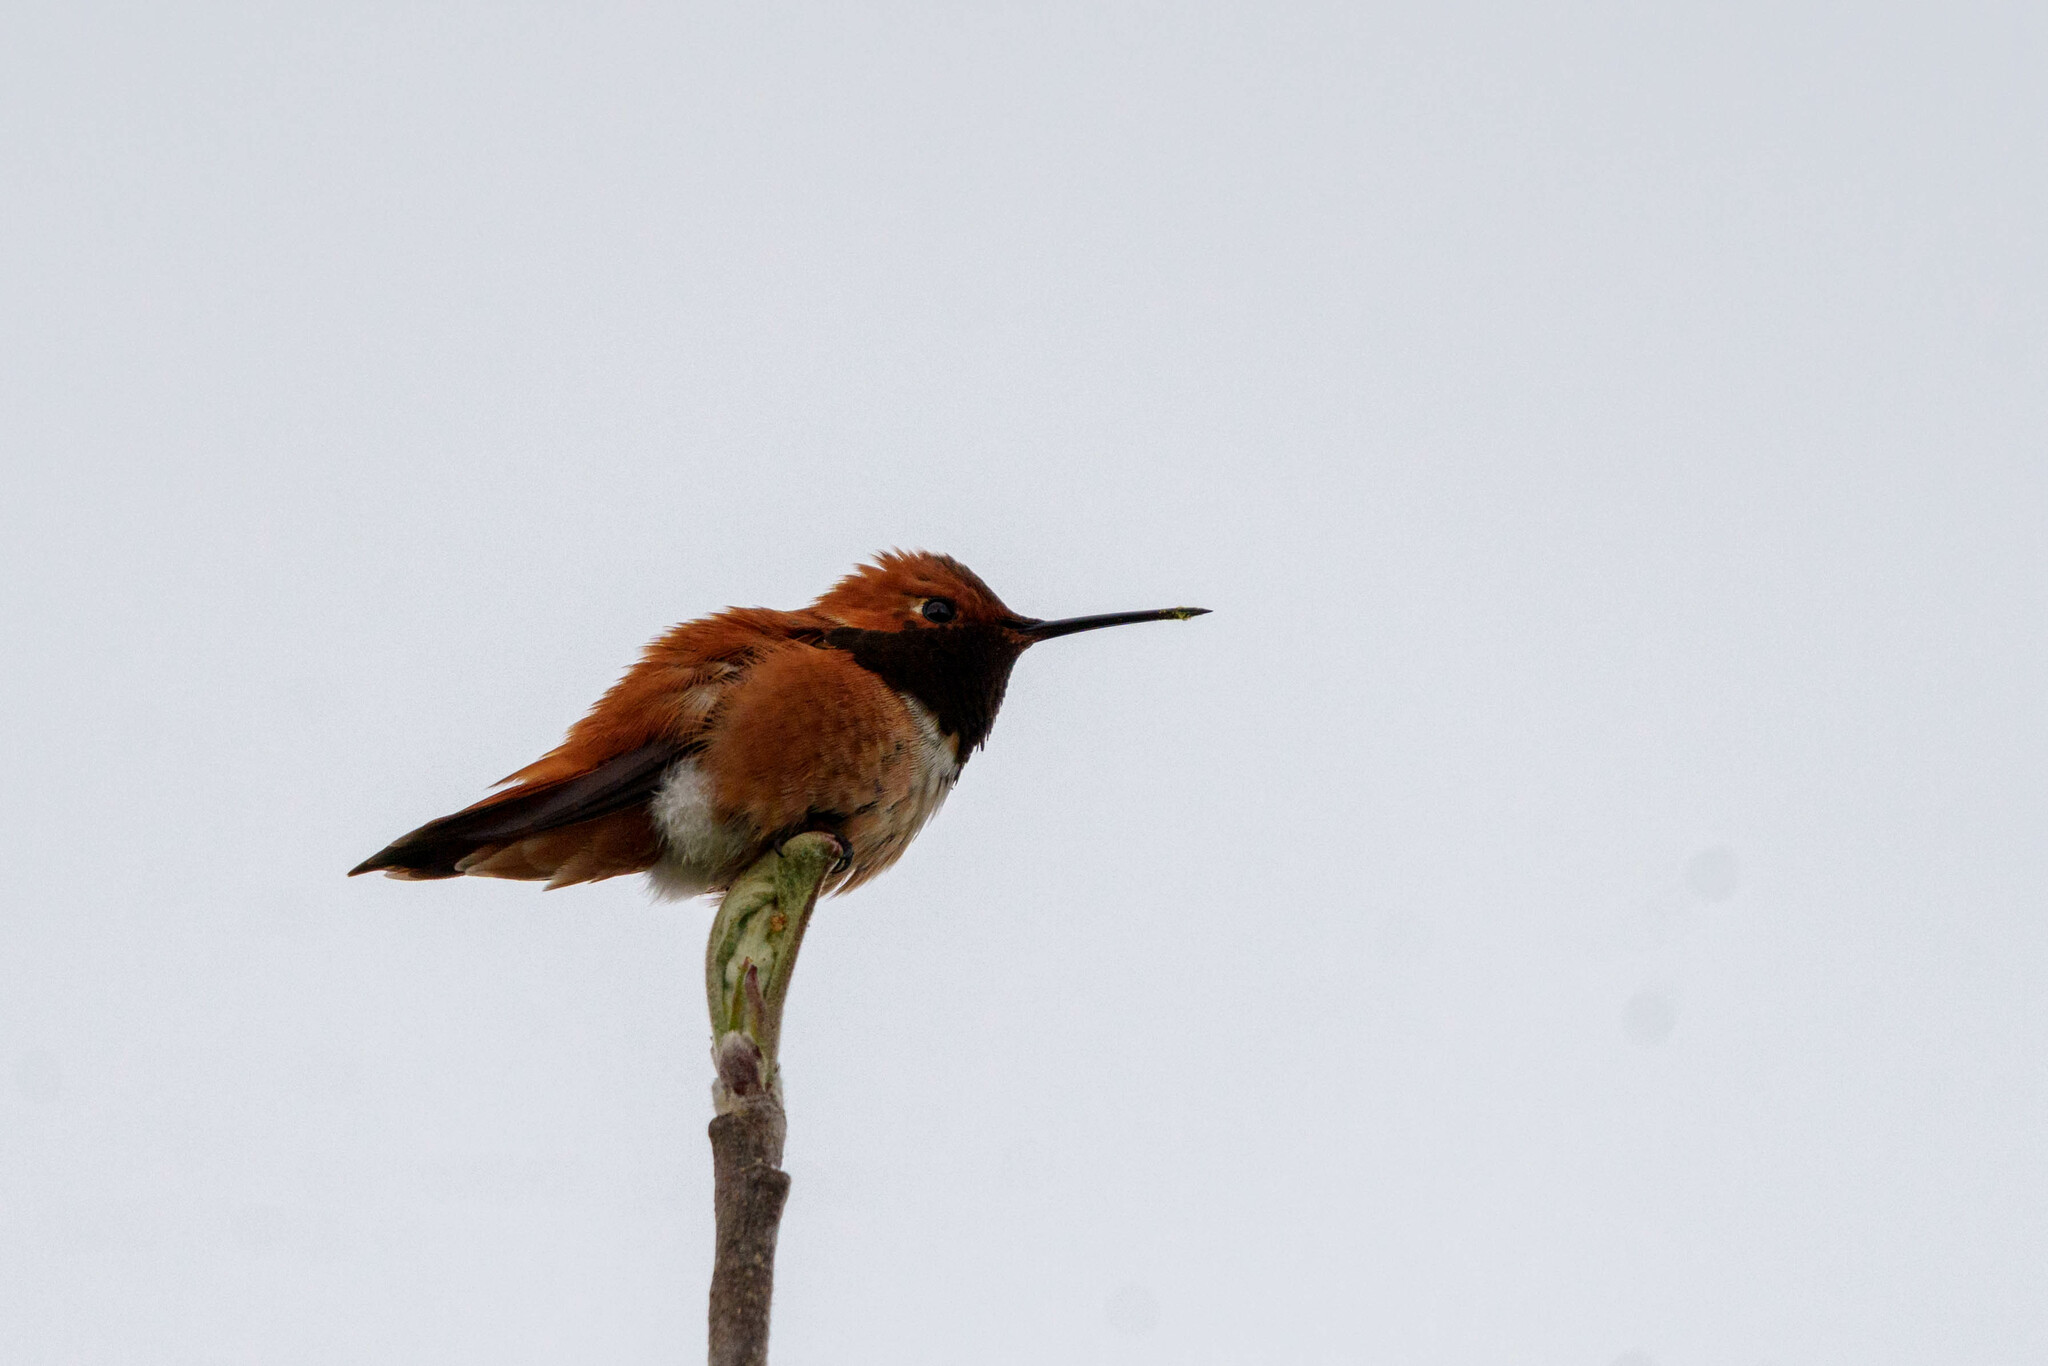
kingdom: Animalia
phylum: Chordata
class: Aves
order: Apodiformes
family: Trochilidae
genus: Selasphorus
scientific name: Selasphorus rufus
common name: Rufous hummingbird
